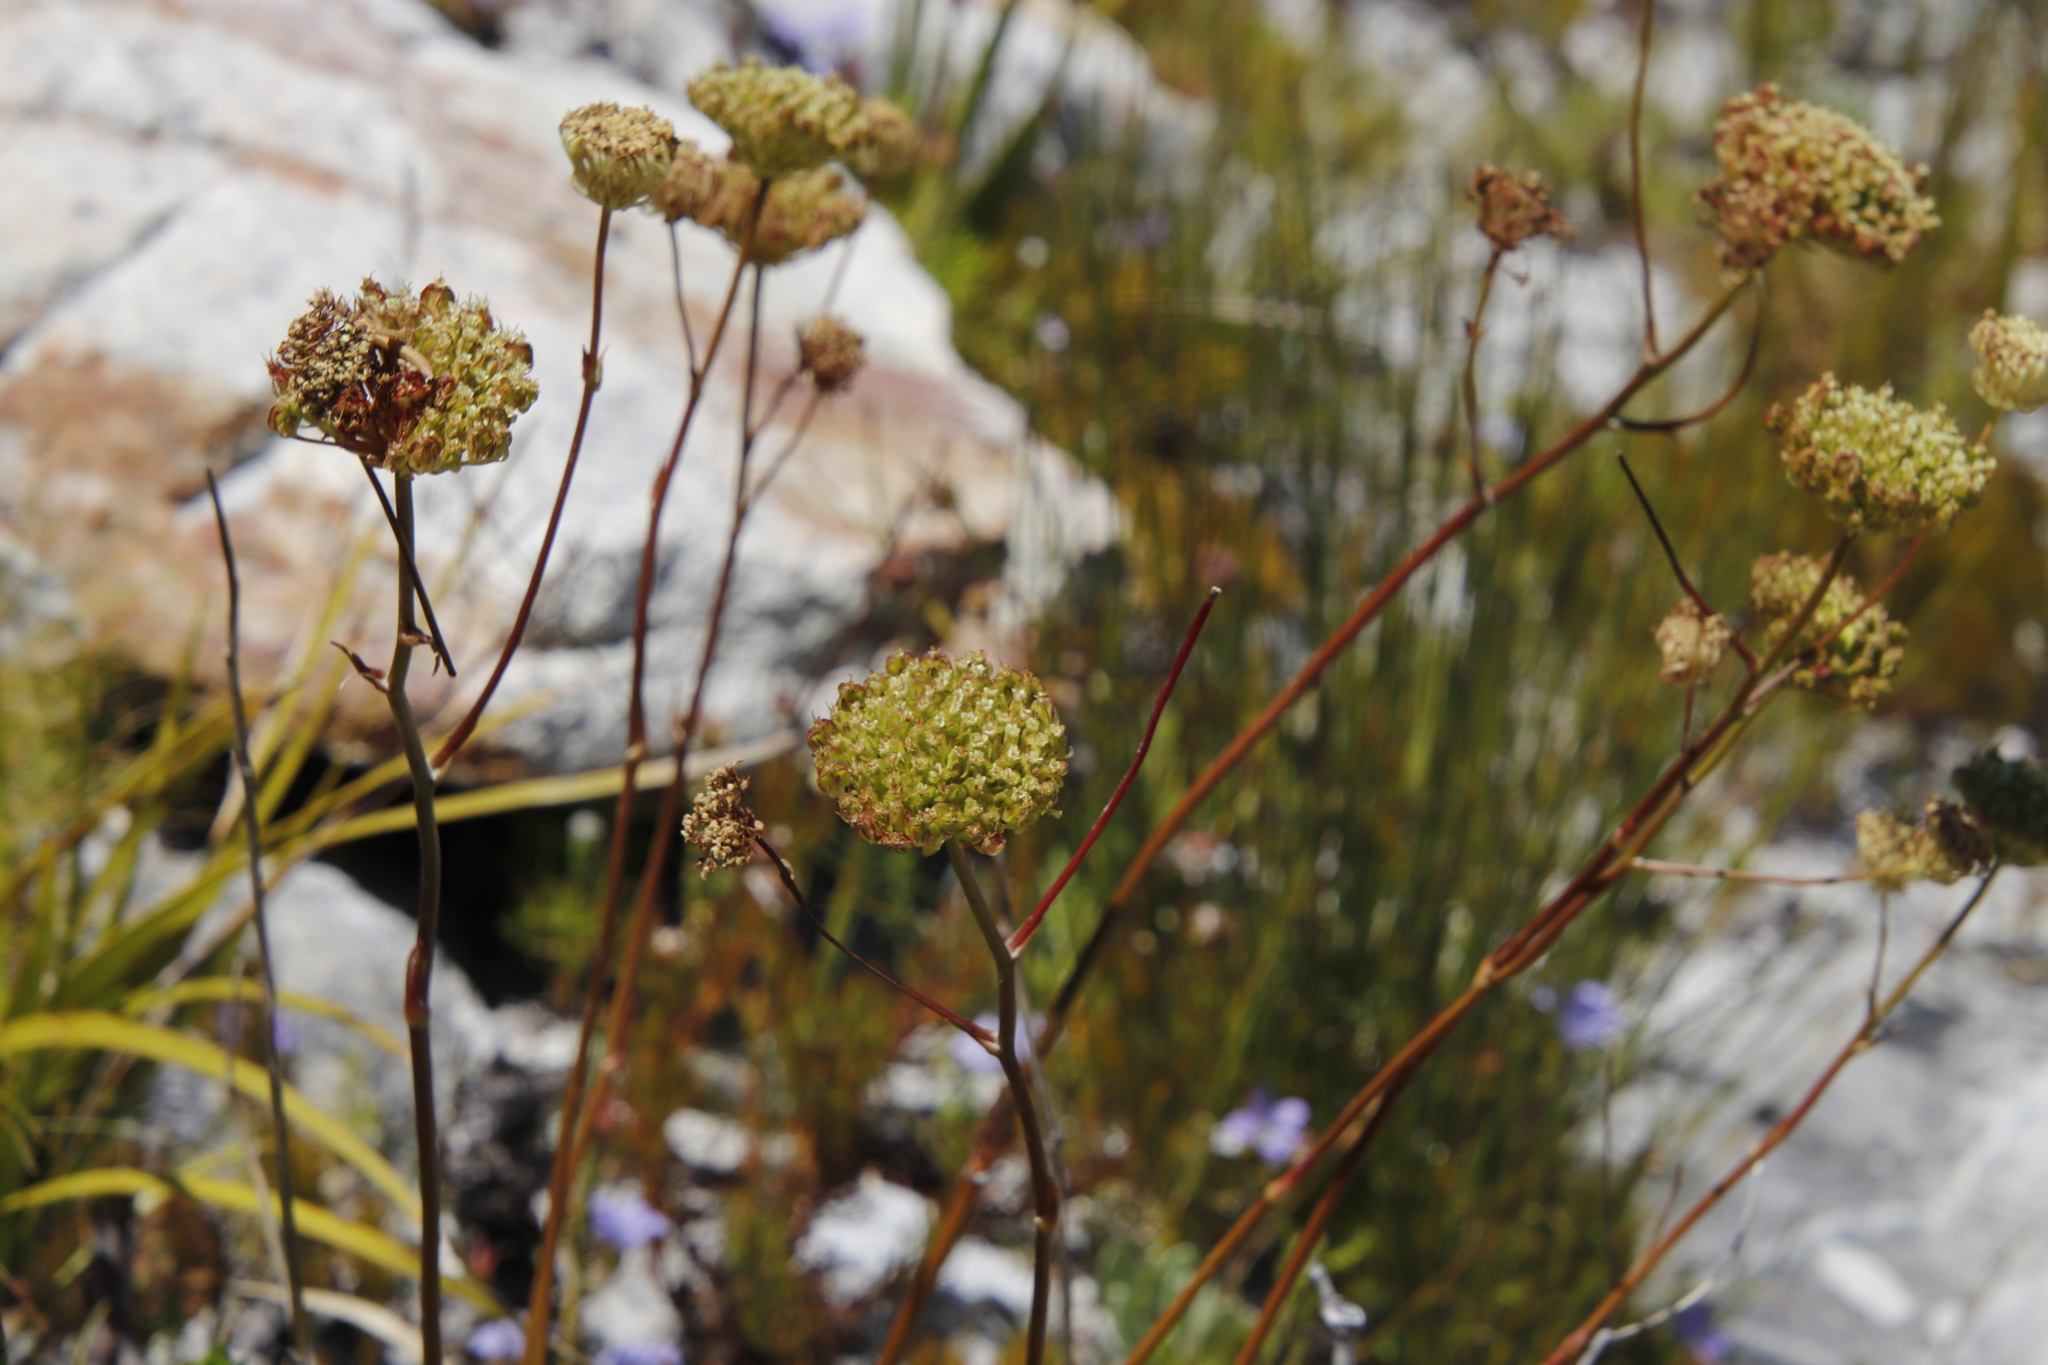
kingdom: Plantae
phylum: Tracheophyta
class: Magnoliopsida
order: Apiales
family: Apiaceae
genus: Hermas
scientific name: Hermas villosa
